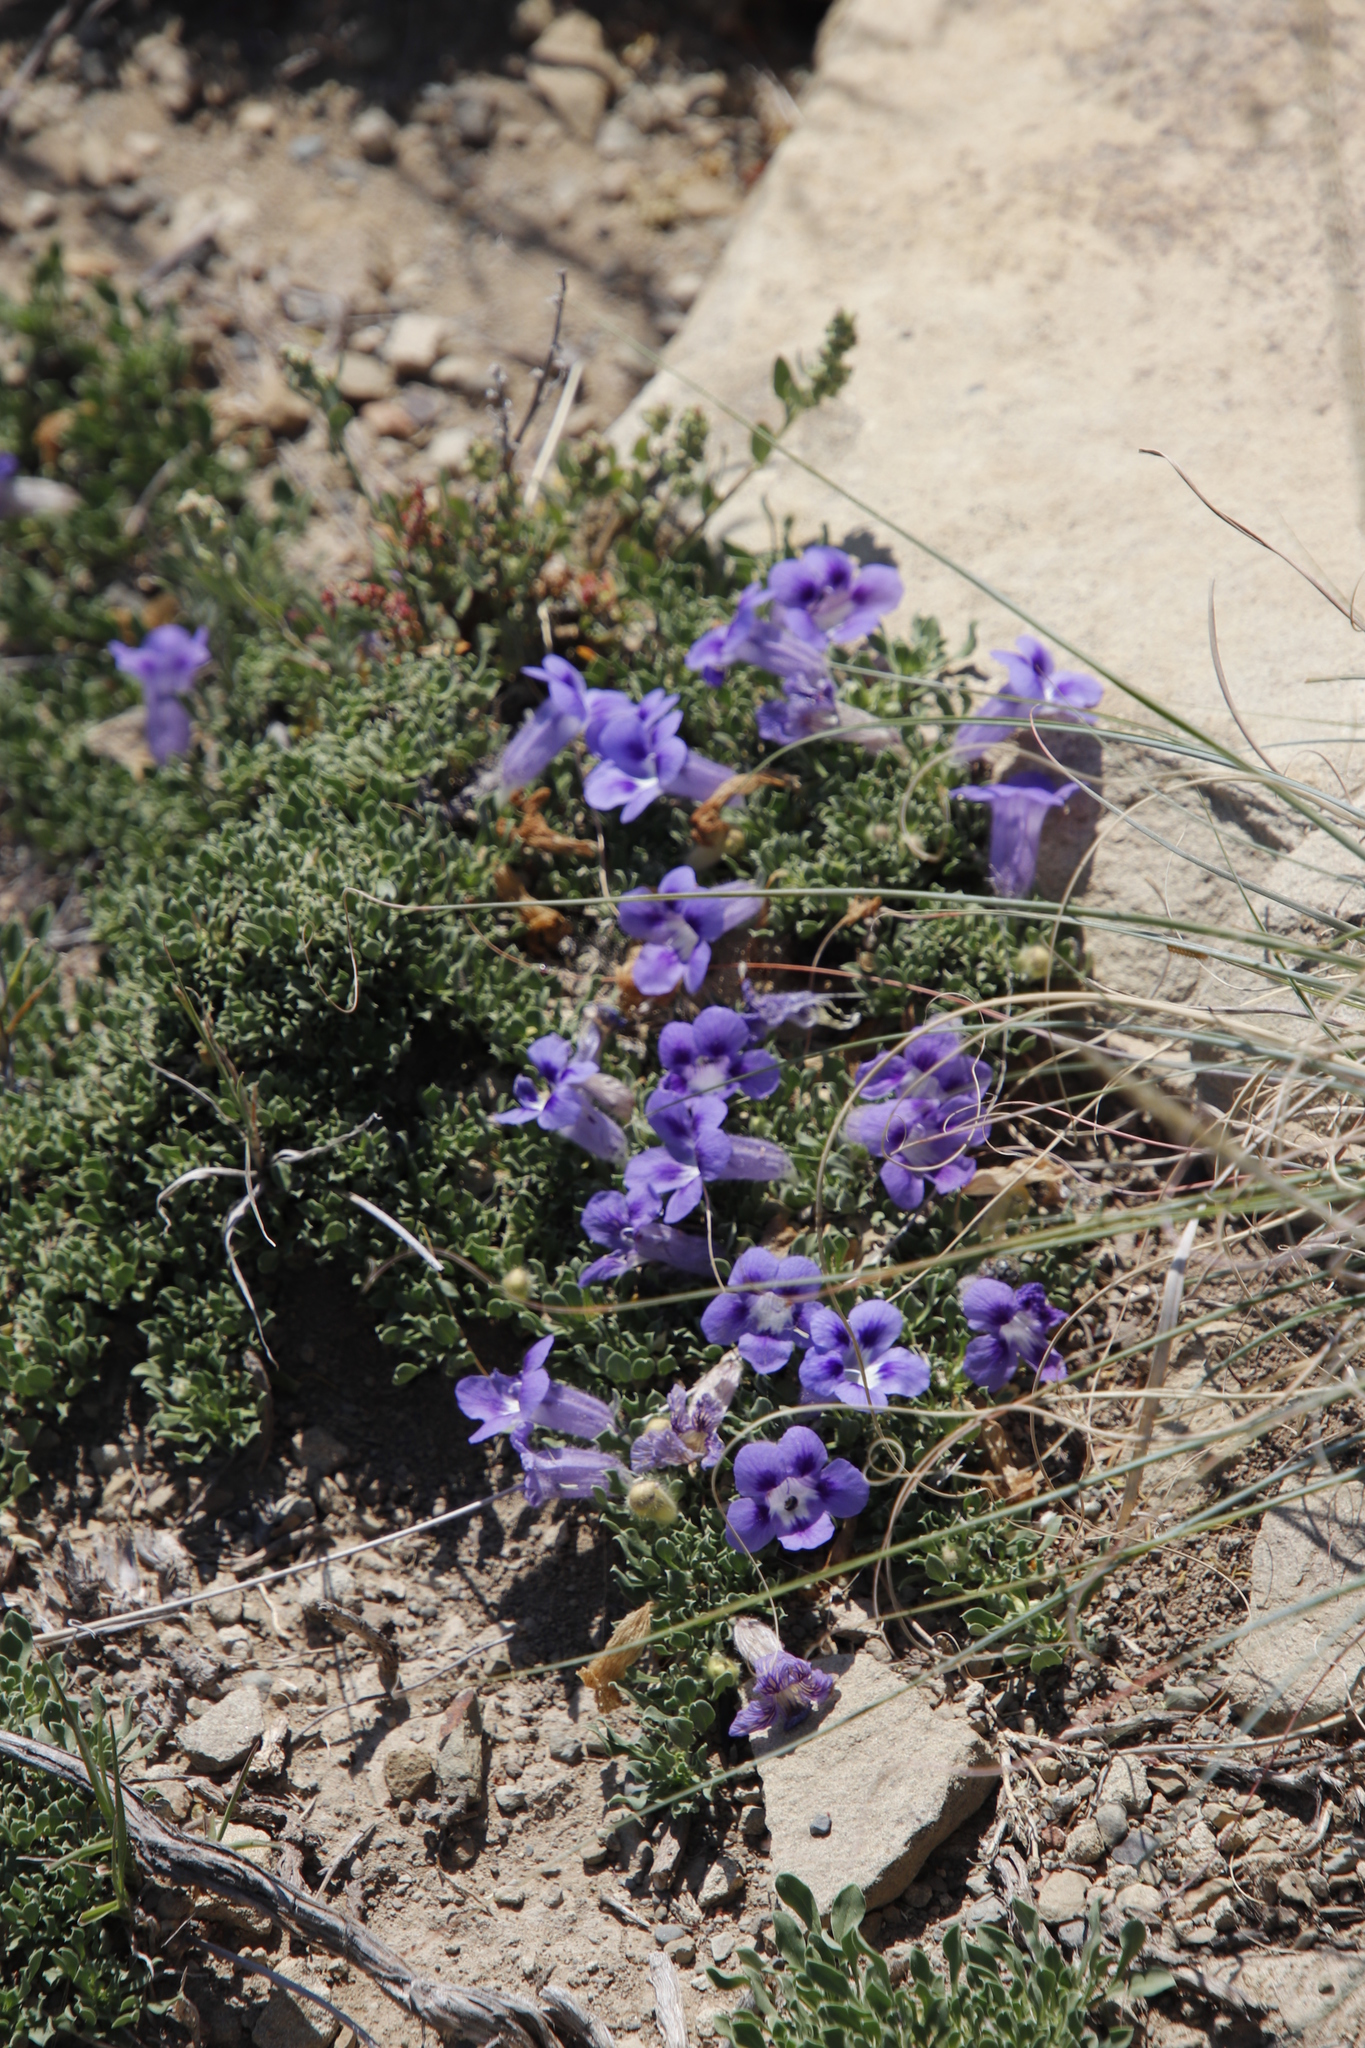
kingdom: Plantae
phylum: Tracheophyta
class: Magnoliopsida
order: Lamiales
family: Scrophulariaceae
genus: Aptosimum
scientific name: Aptosimum procumbens
